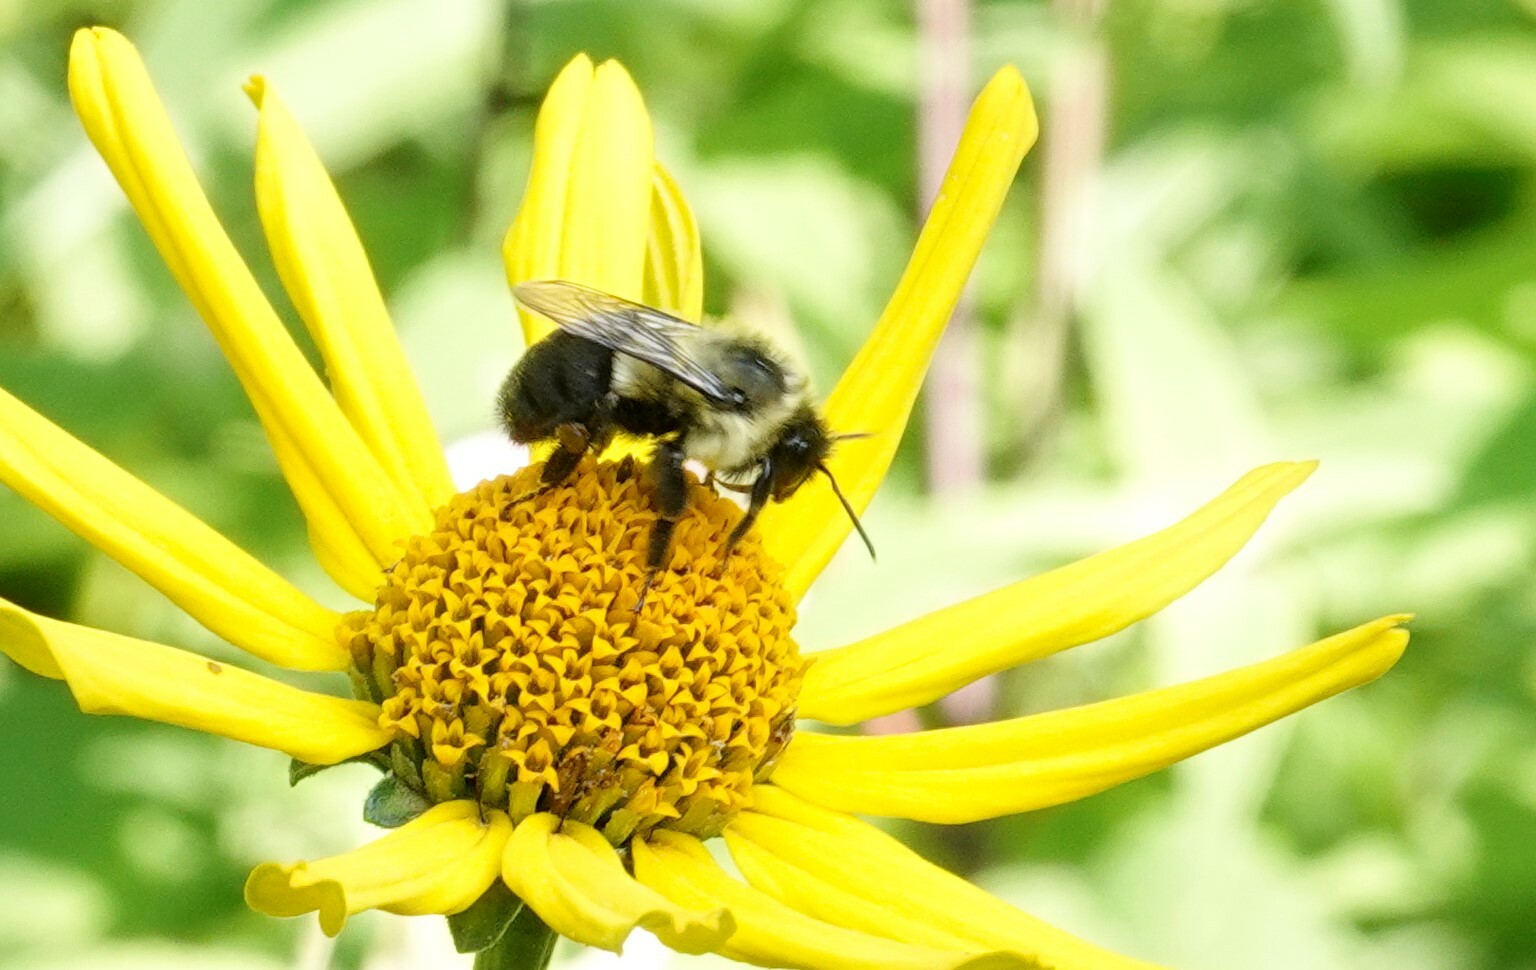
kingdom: Animalia
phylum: Arthropoda
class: Insecta
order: Hymenoptera
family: Apidae
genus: Bombus
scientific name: Bombus impatiens
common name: Common eastern bumble bee
